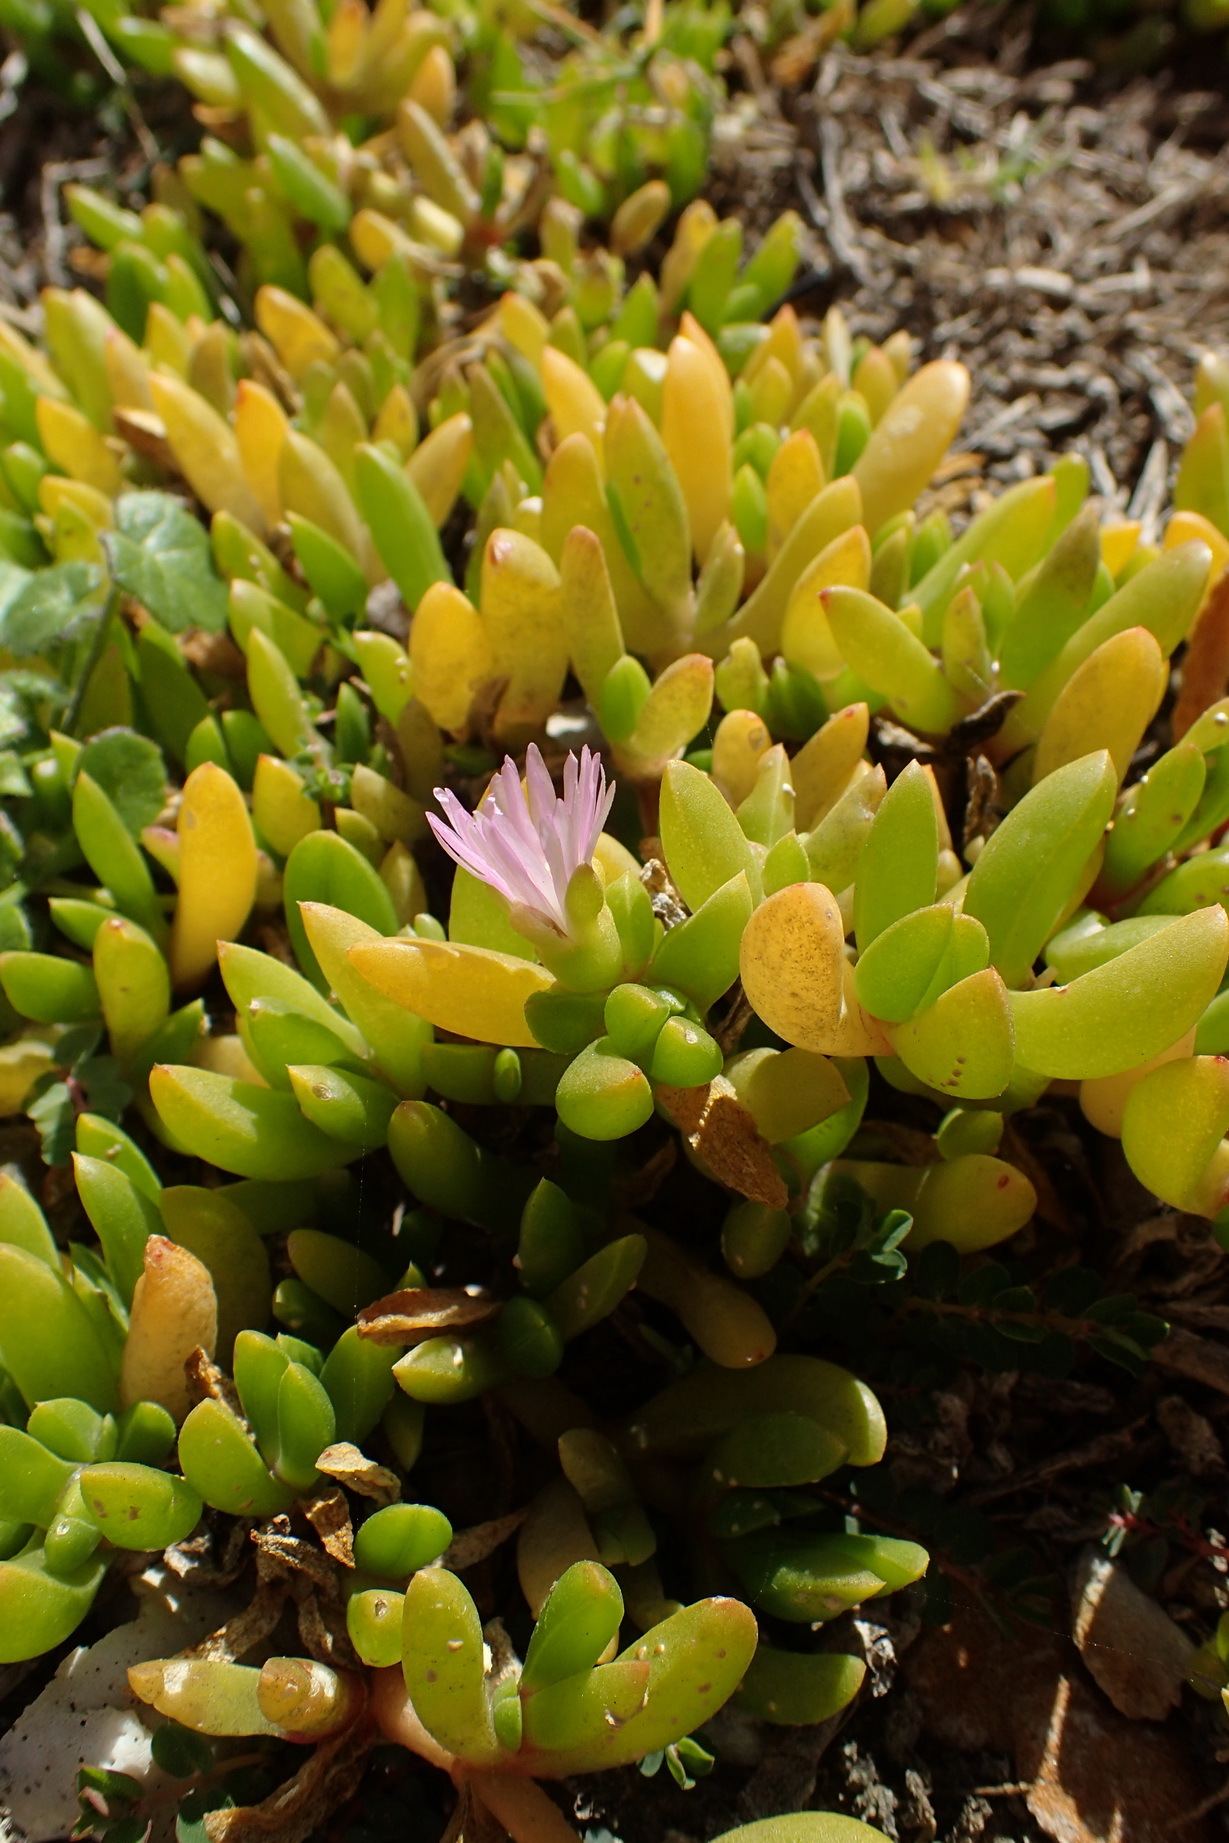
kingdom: Plantae
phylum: Tracheophyta
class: Magnoliopsida
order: Caryophyllales
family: Aizoaceae
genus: Disphyma
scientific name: Disphyma crassifolium
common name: Purple dewplant
